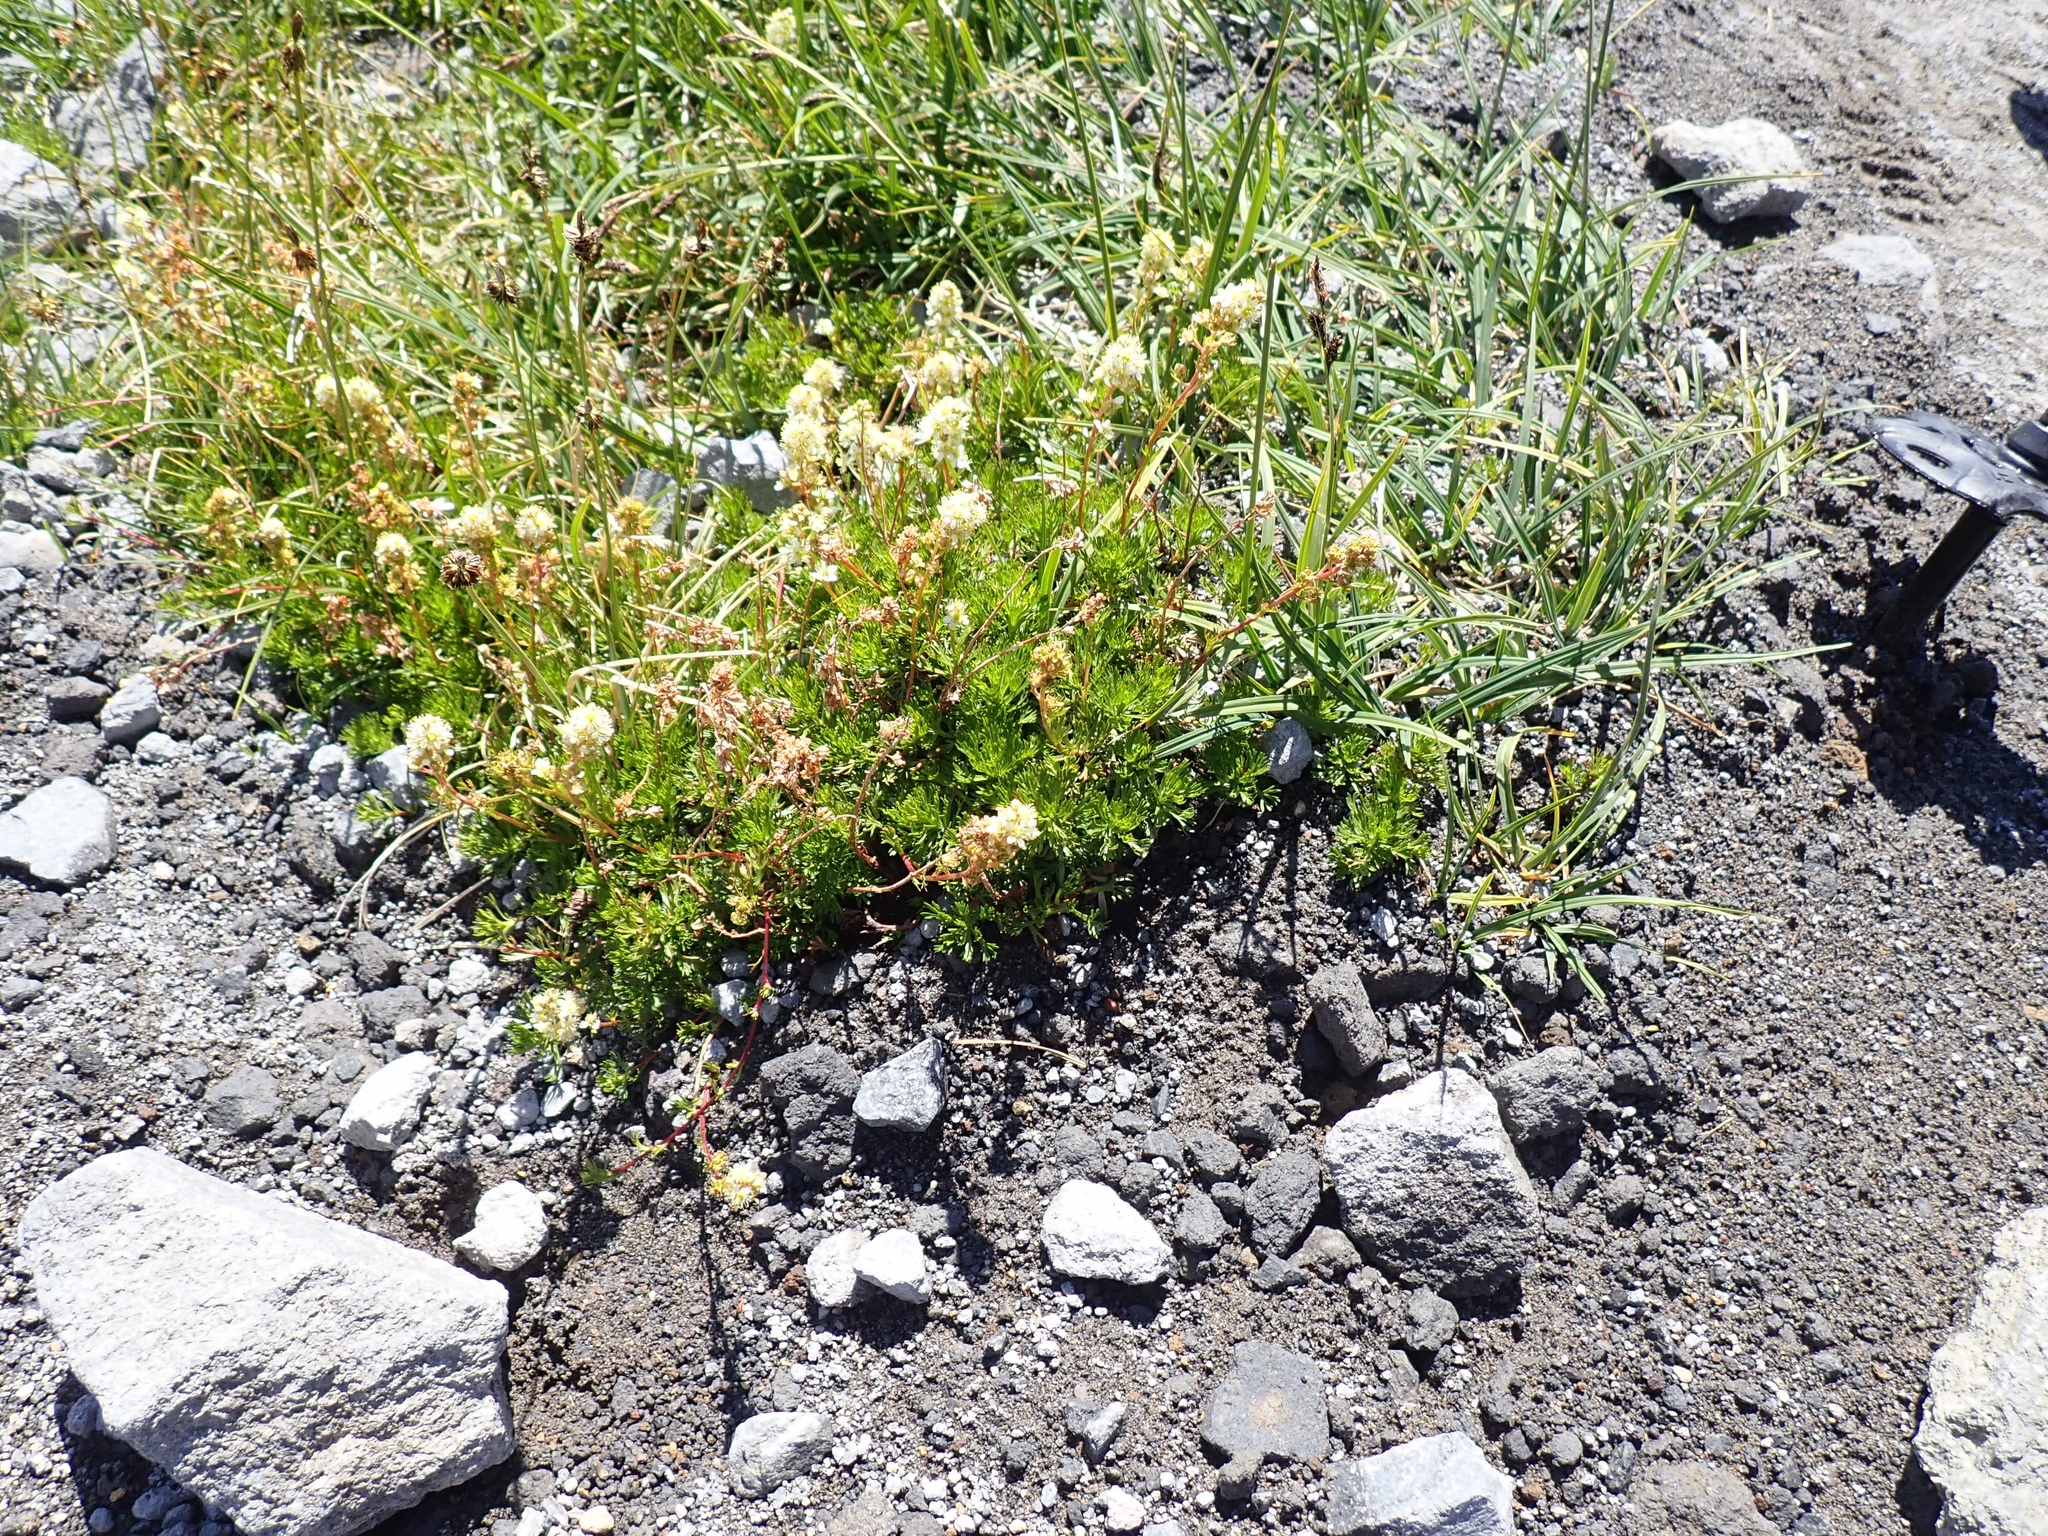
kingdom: Plantae
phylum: Tracheophyta
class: Magnoliopsida
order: Rosales
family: Rosaceae
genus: Luetkea
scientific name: Luetkea pectinata
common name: Partridgefoot
